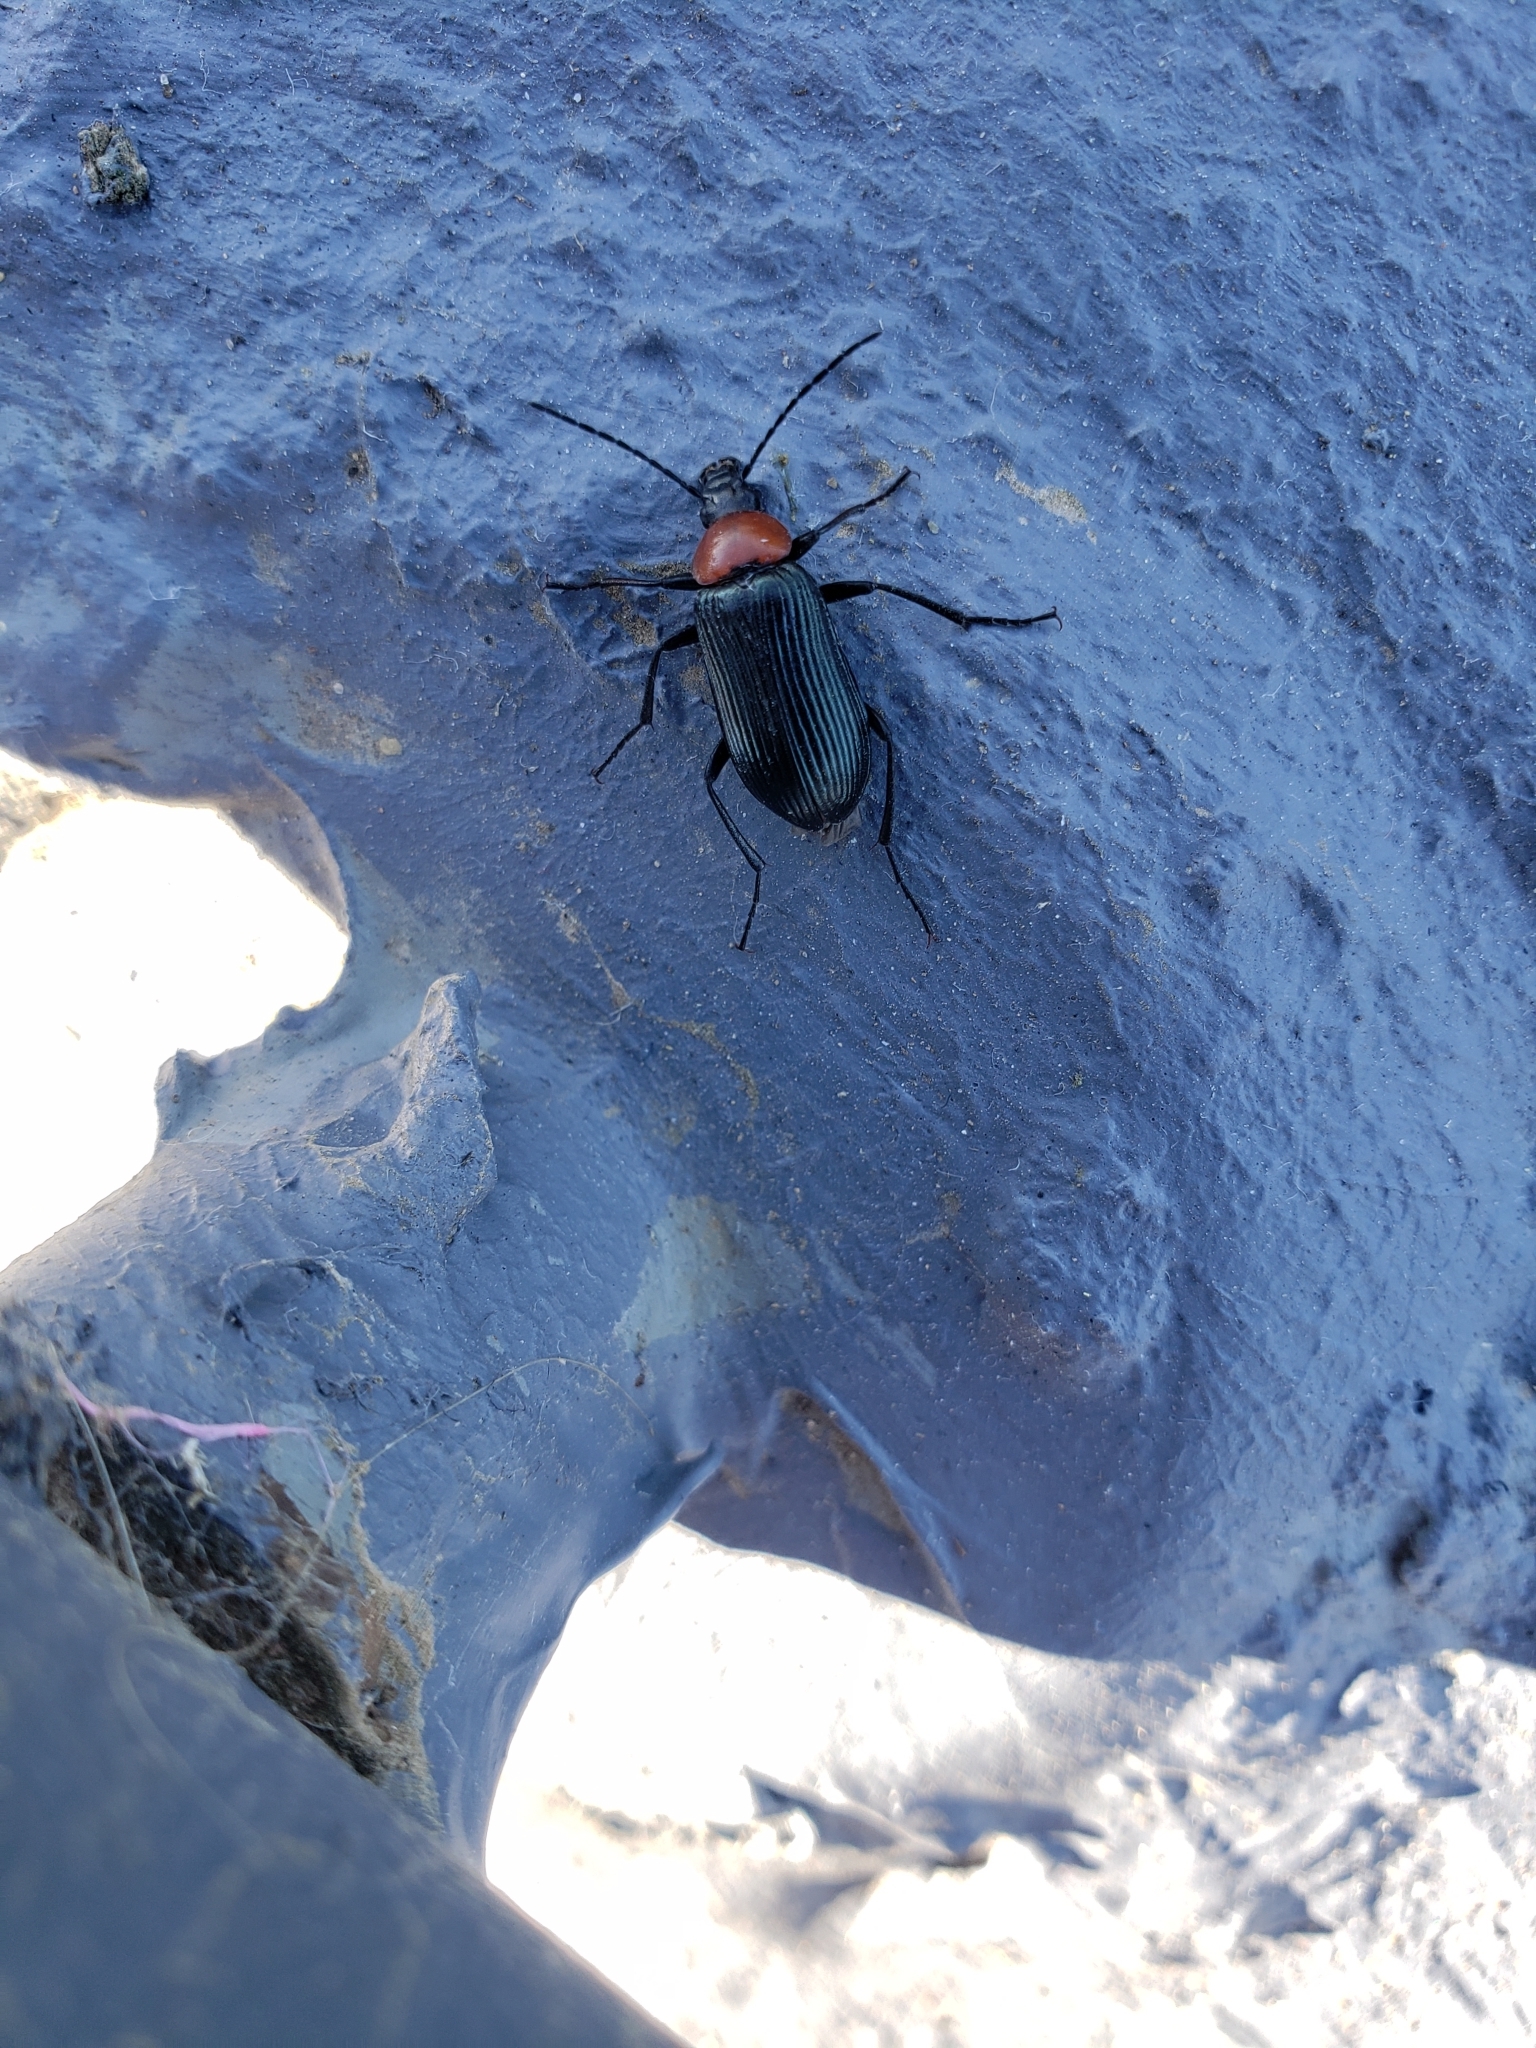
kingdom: Animalia
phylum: Arthropoda
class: Insecta
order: Coleoptera
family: Tenebrionidae
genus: Heliotaurus
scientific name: Heliotaurus ruficollis
